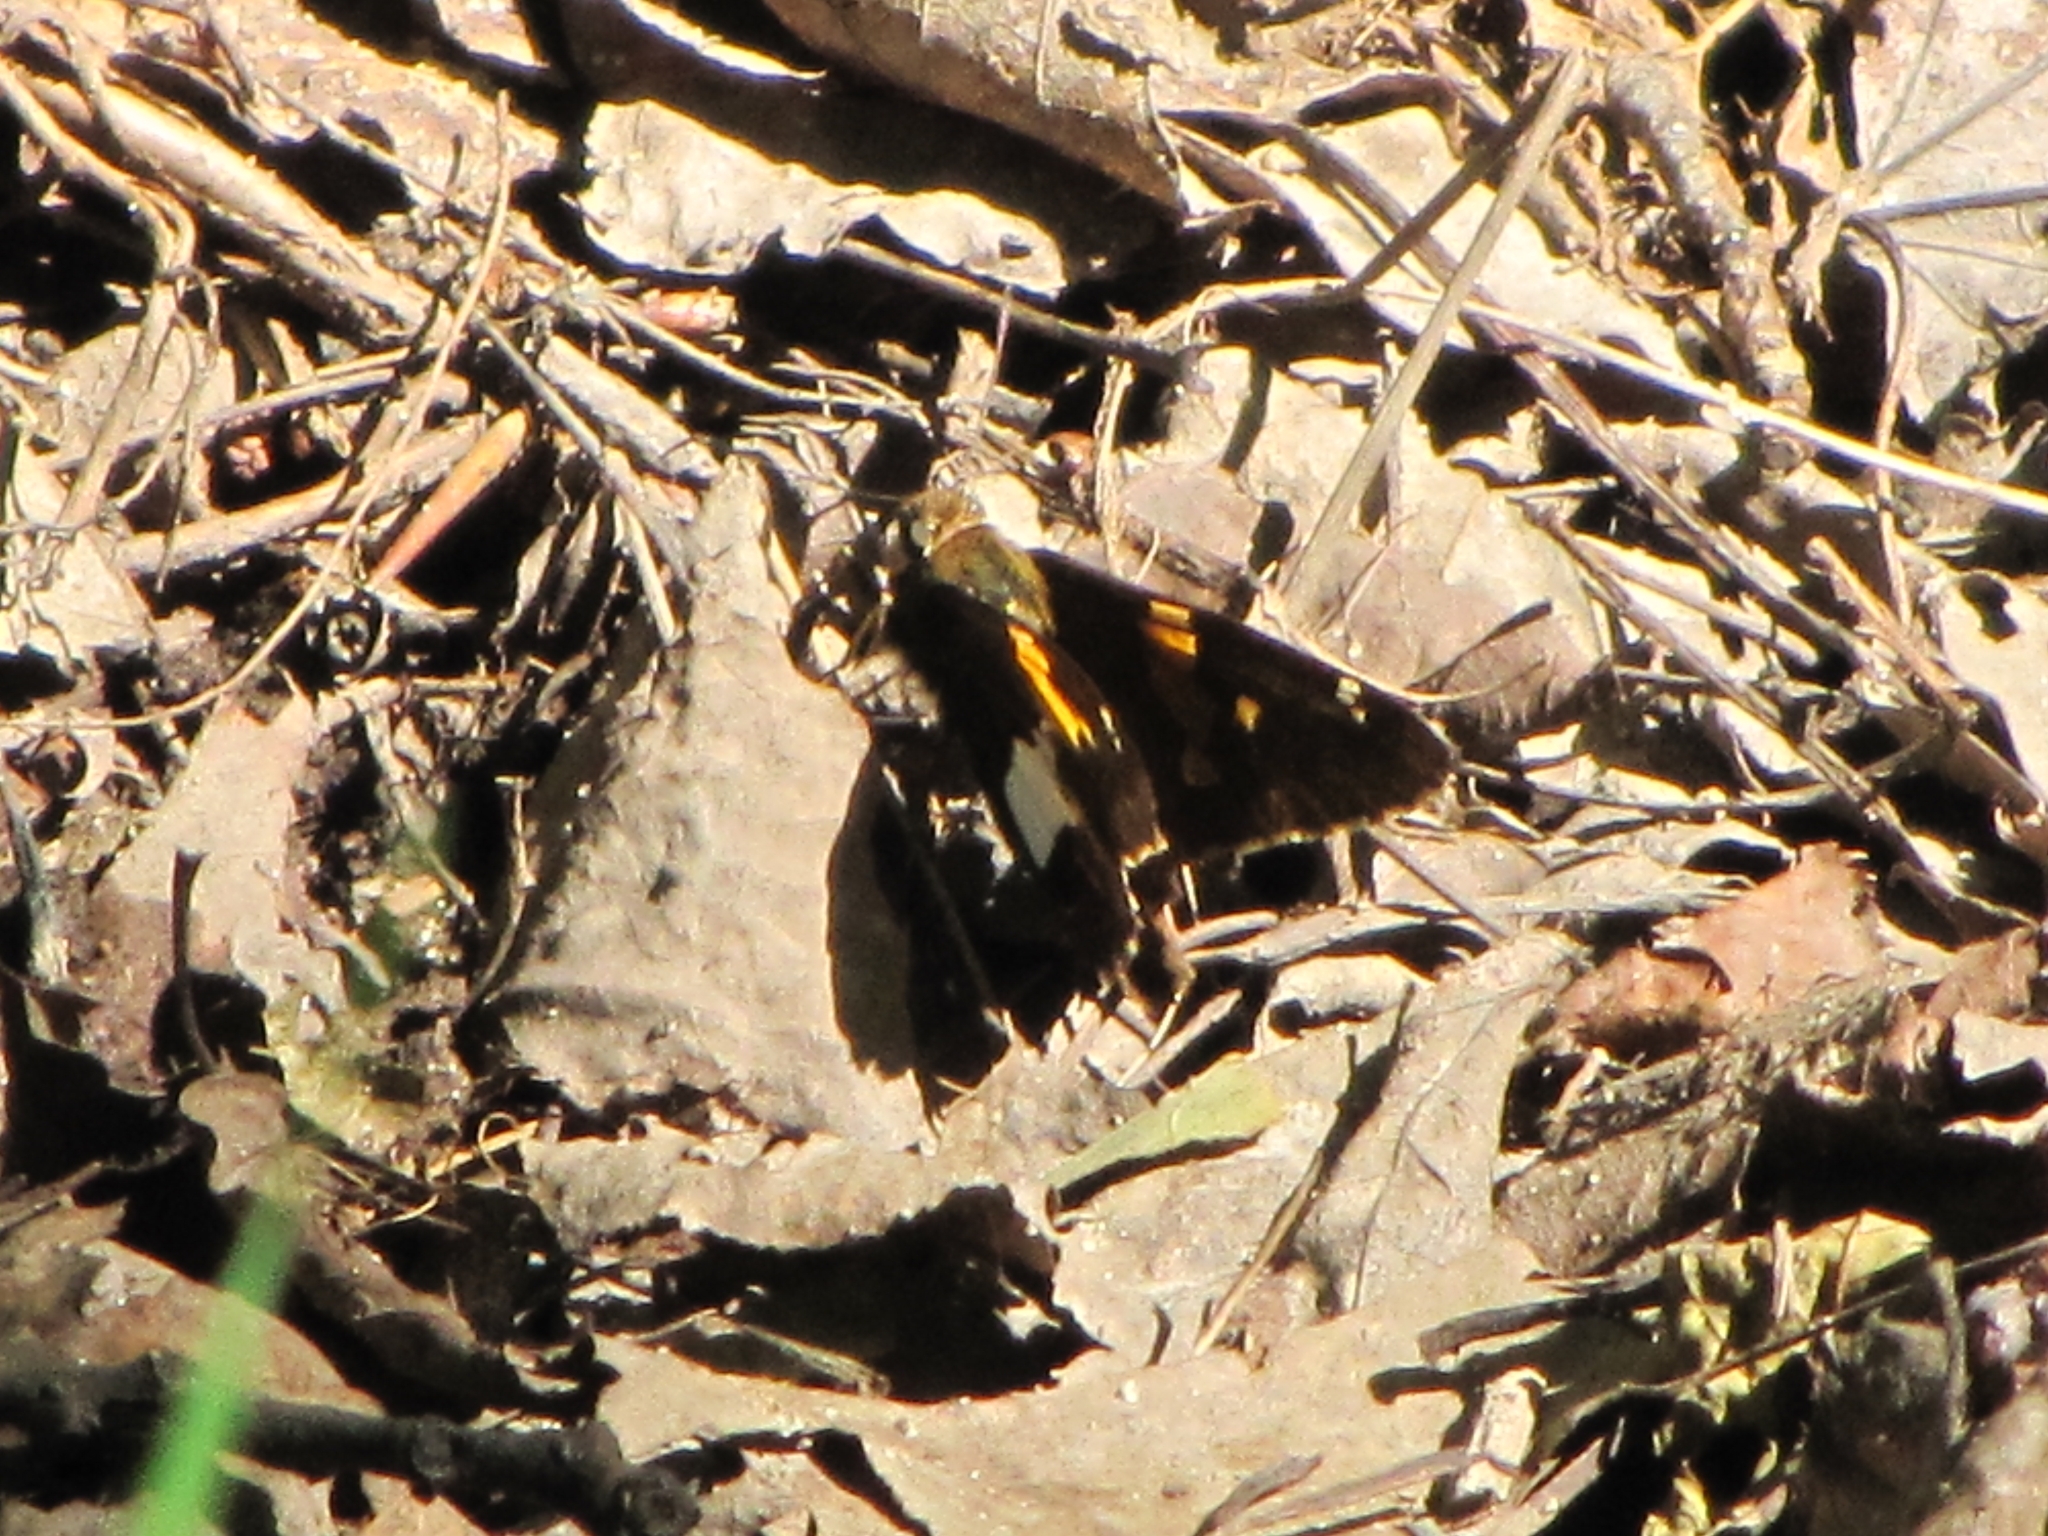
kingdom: Animalia
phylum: Arthropoda
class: Insecta
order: Lepidoptera
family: Hesperiidae
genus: Epargyreus
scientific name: Epargyreus clarus
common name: Silver-spotted skipper
